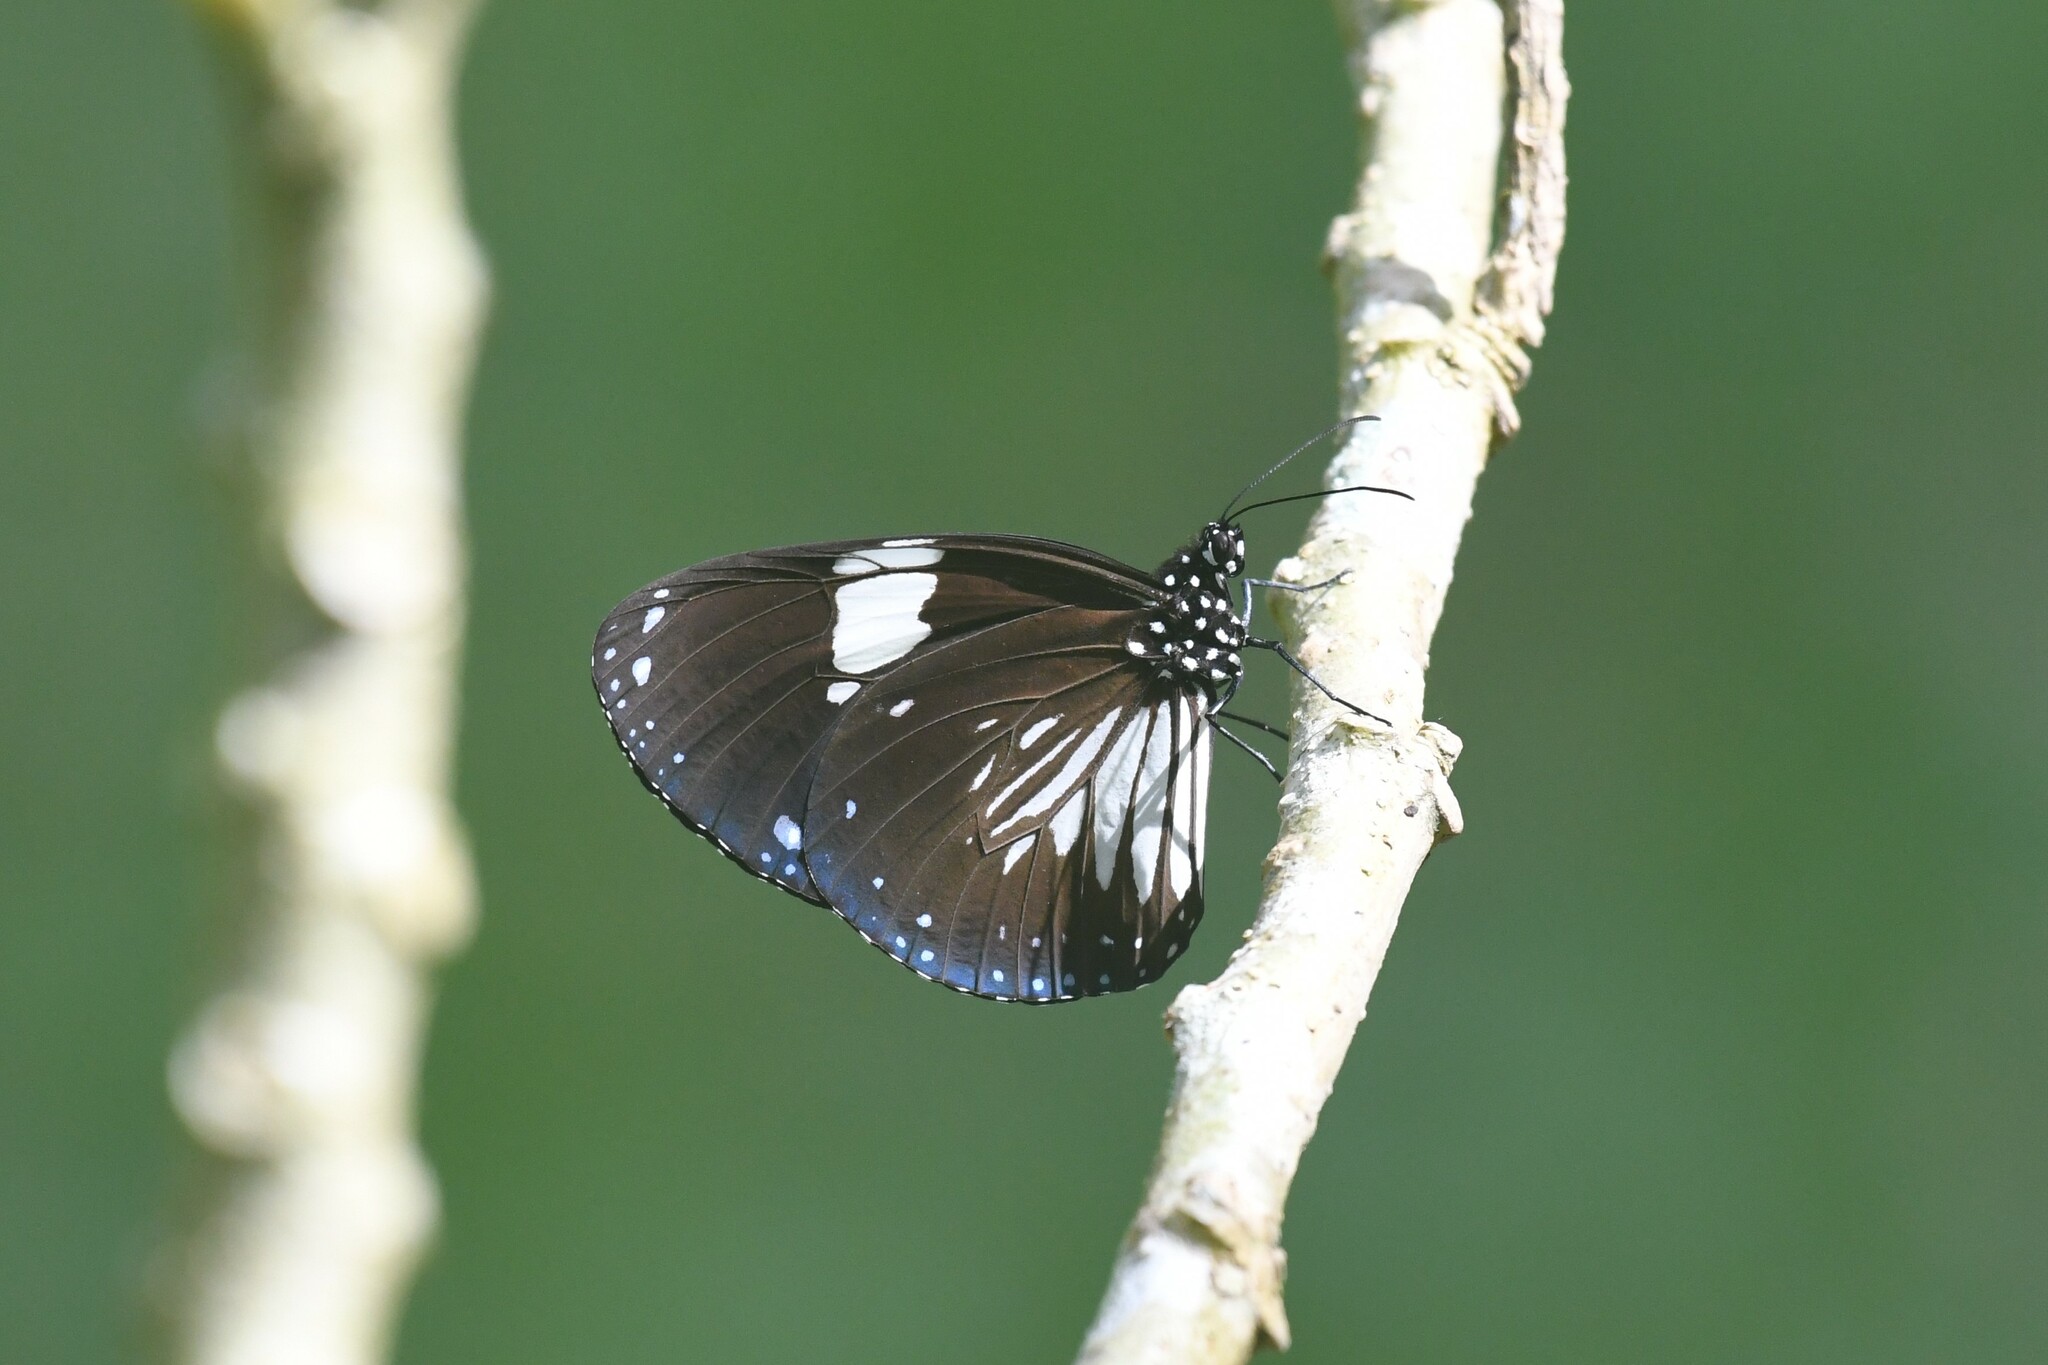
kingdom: Animalia
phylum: Arthropoda
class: Insecta
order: Lepidoptera
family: Nymphalidae
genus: Euploea
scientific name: Euploea radamanthus
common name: Magpie crow butterfly
